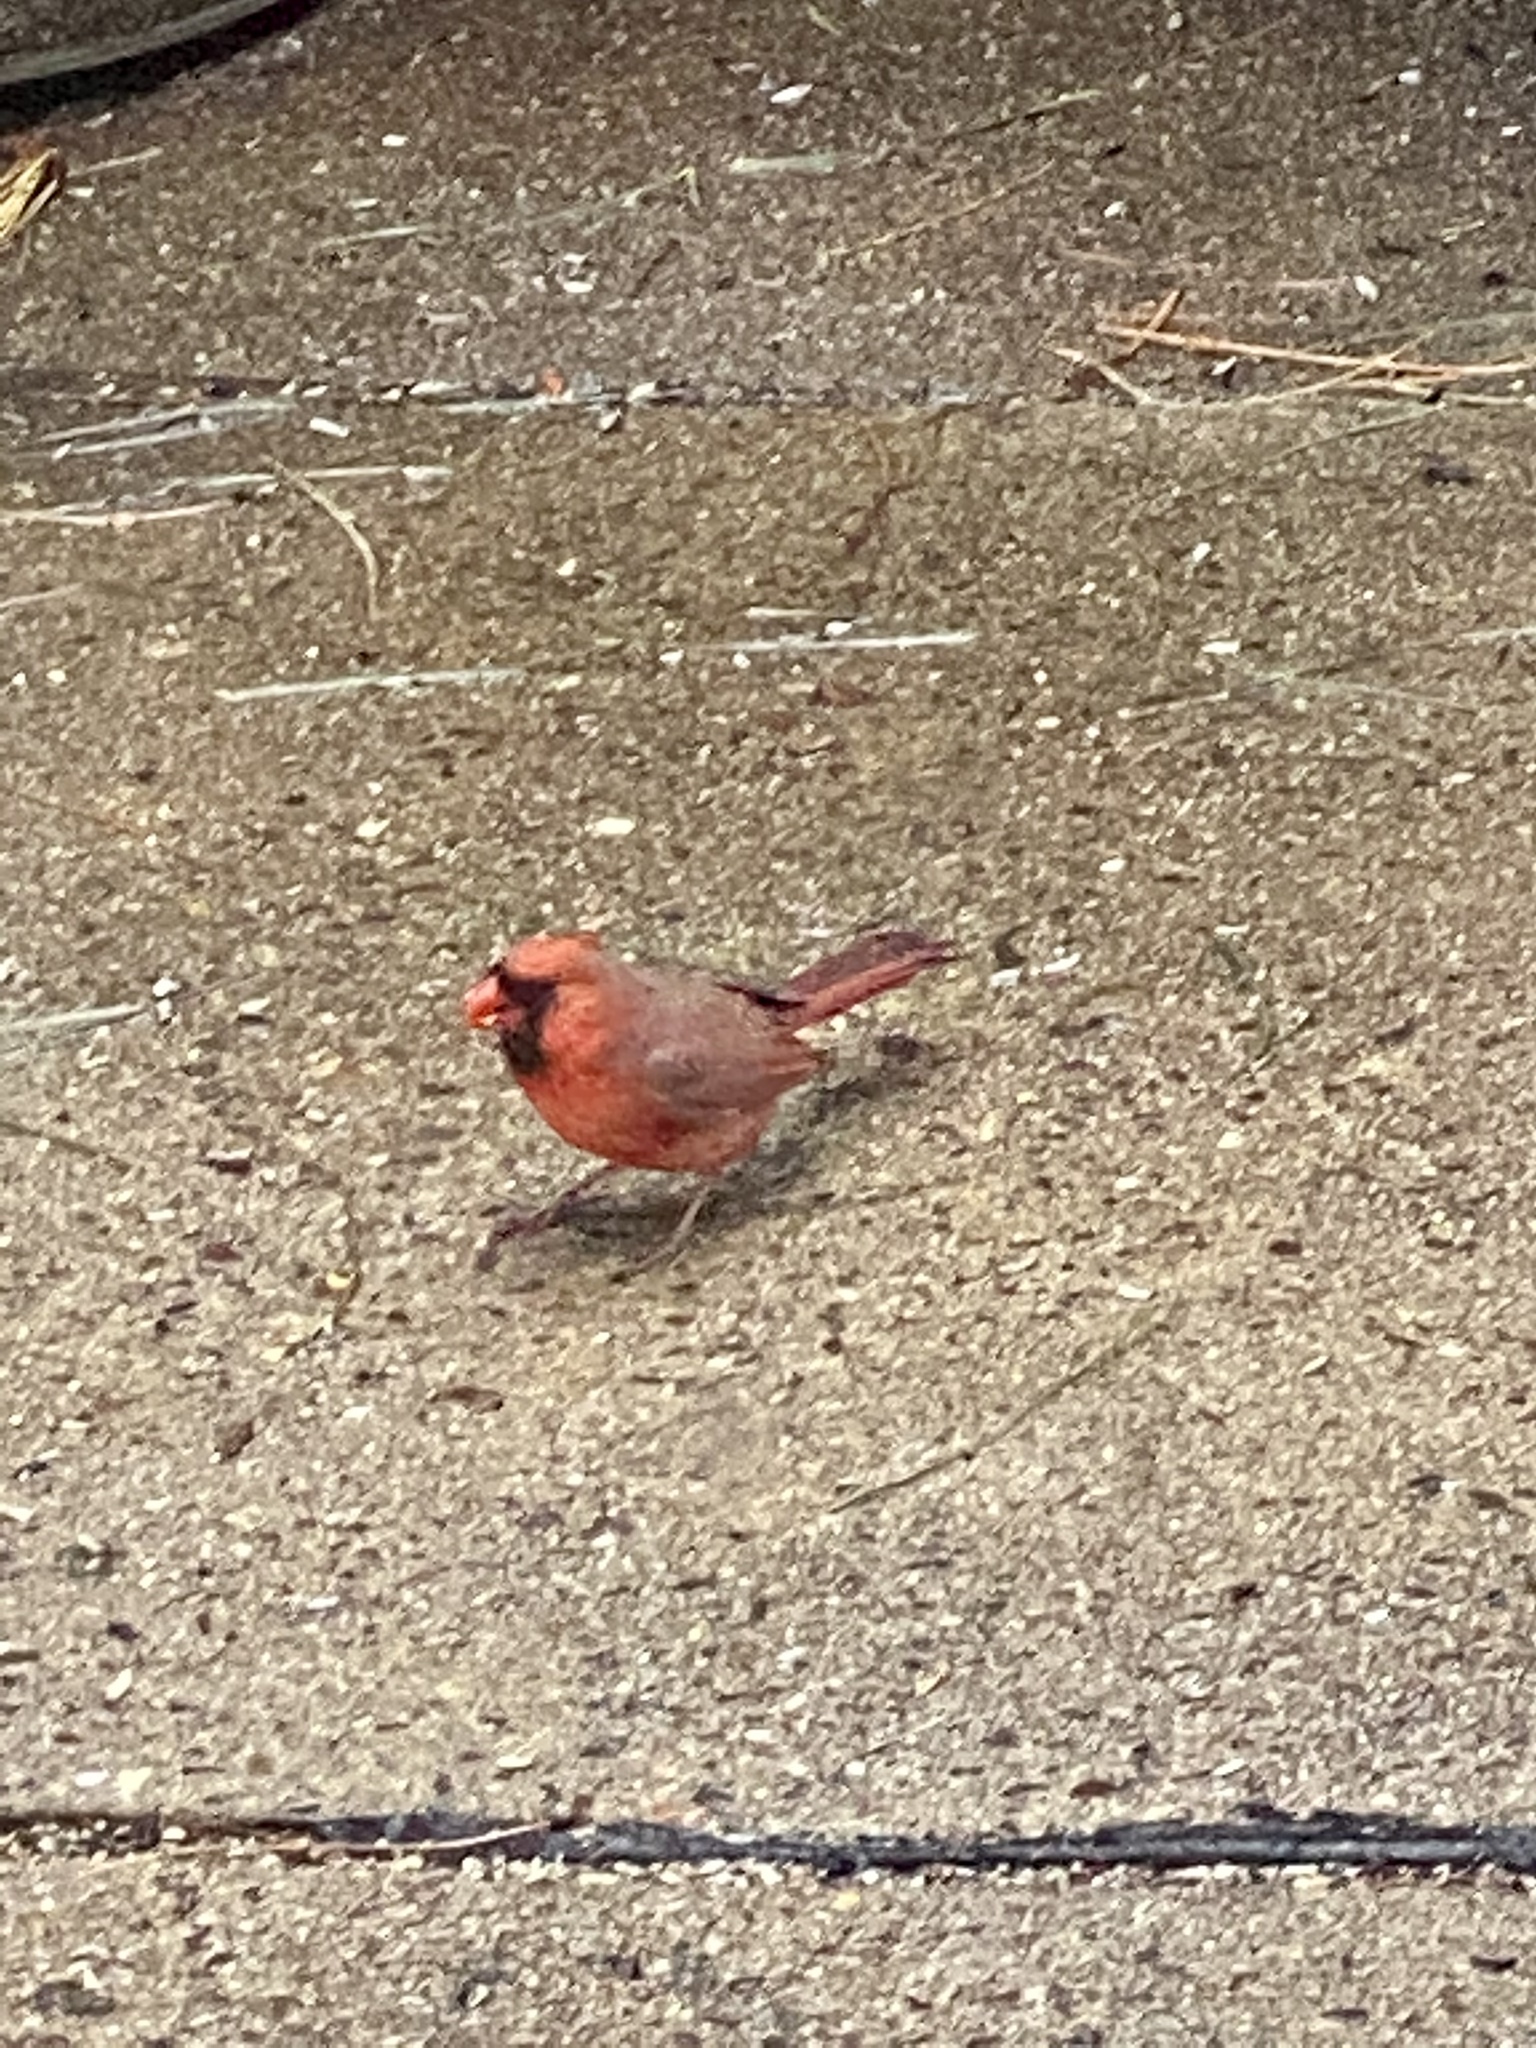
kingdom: Animalia
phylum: Chordata
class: Aves
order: Passeriformes
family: Cardinalidae
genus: Cardinalis
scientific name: Cardinalis cardinalis
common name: Northern cardinal
